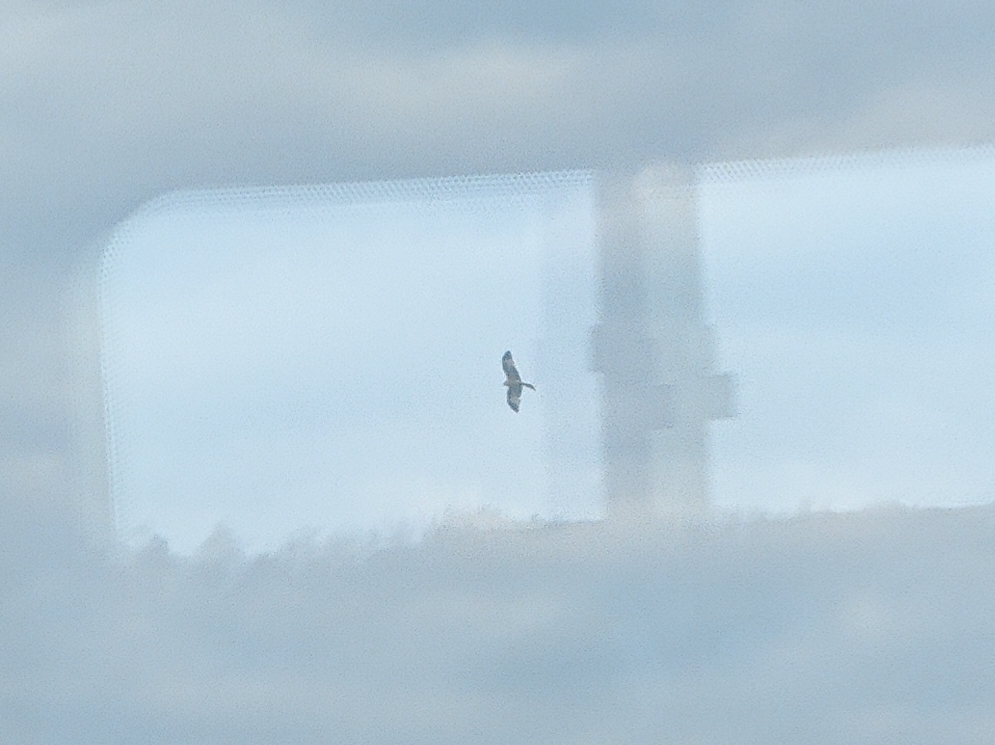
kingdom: Animalia
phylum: Chordata
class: Aves
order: Accipitriformes
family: Accipitridae
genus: Milvus
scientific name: Milvus milvus
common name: Red kite
